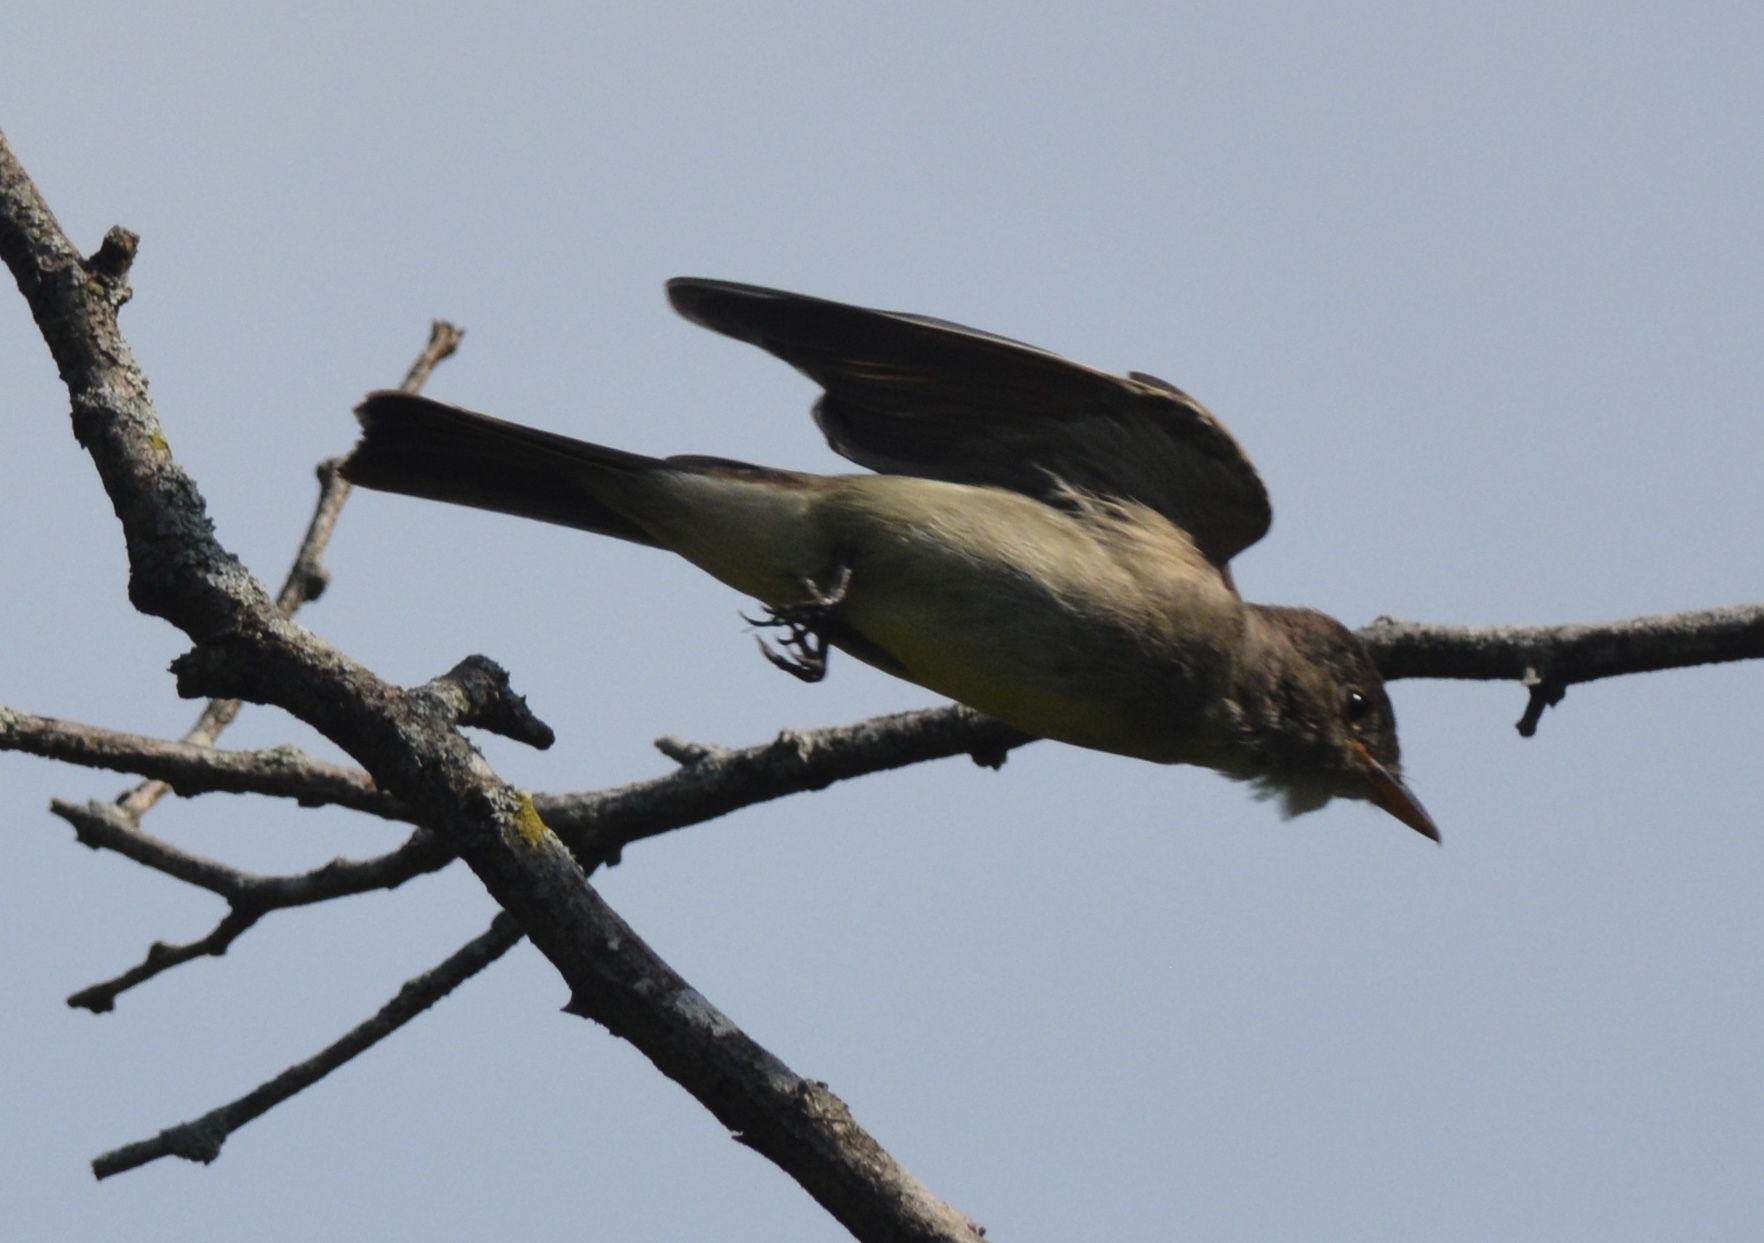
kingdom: Animalia
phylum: Chordata
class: Aves
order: Passeriformes
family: Tyrannidae
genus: Contopus
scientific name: Contopus virens
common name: Eastern wood-pewee
